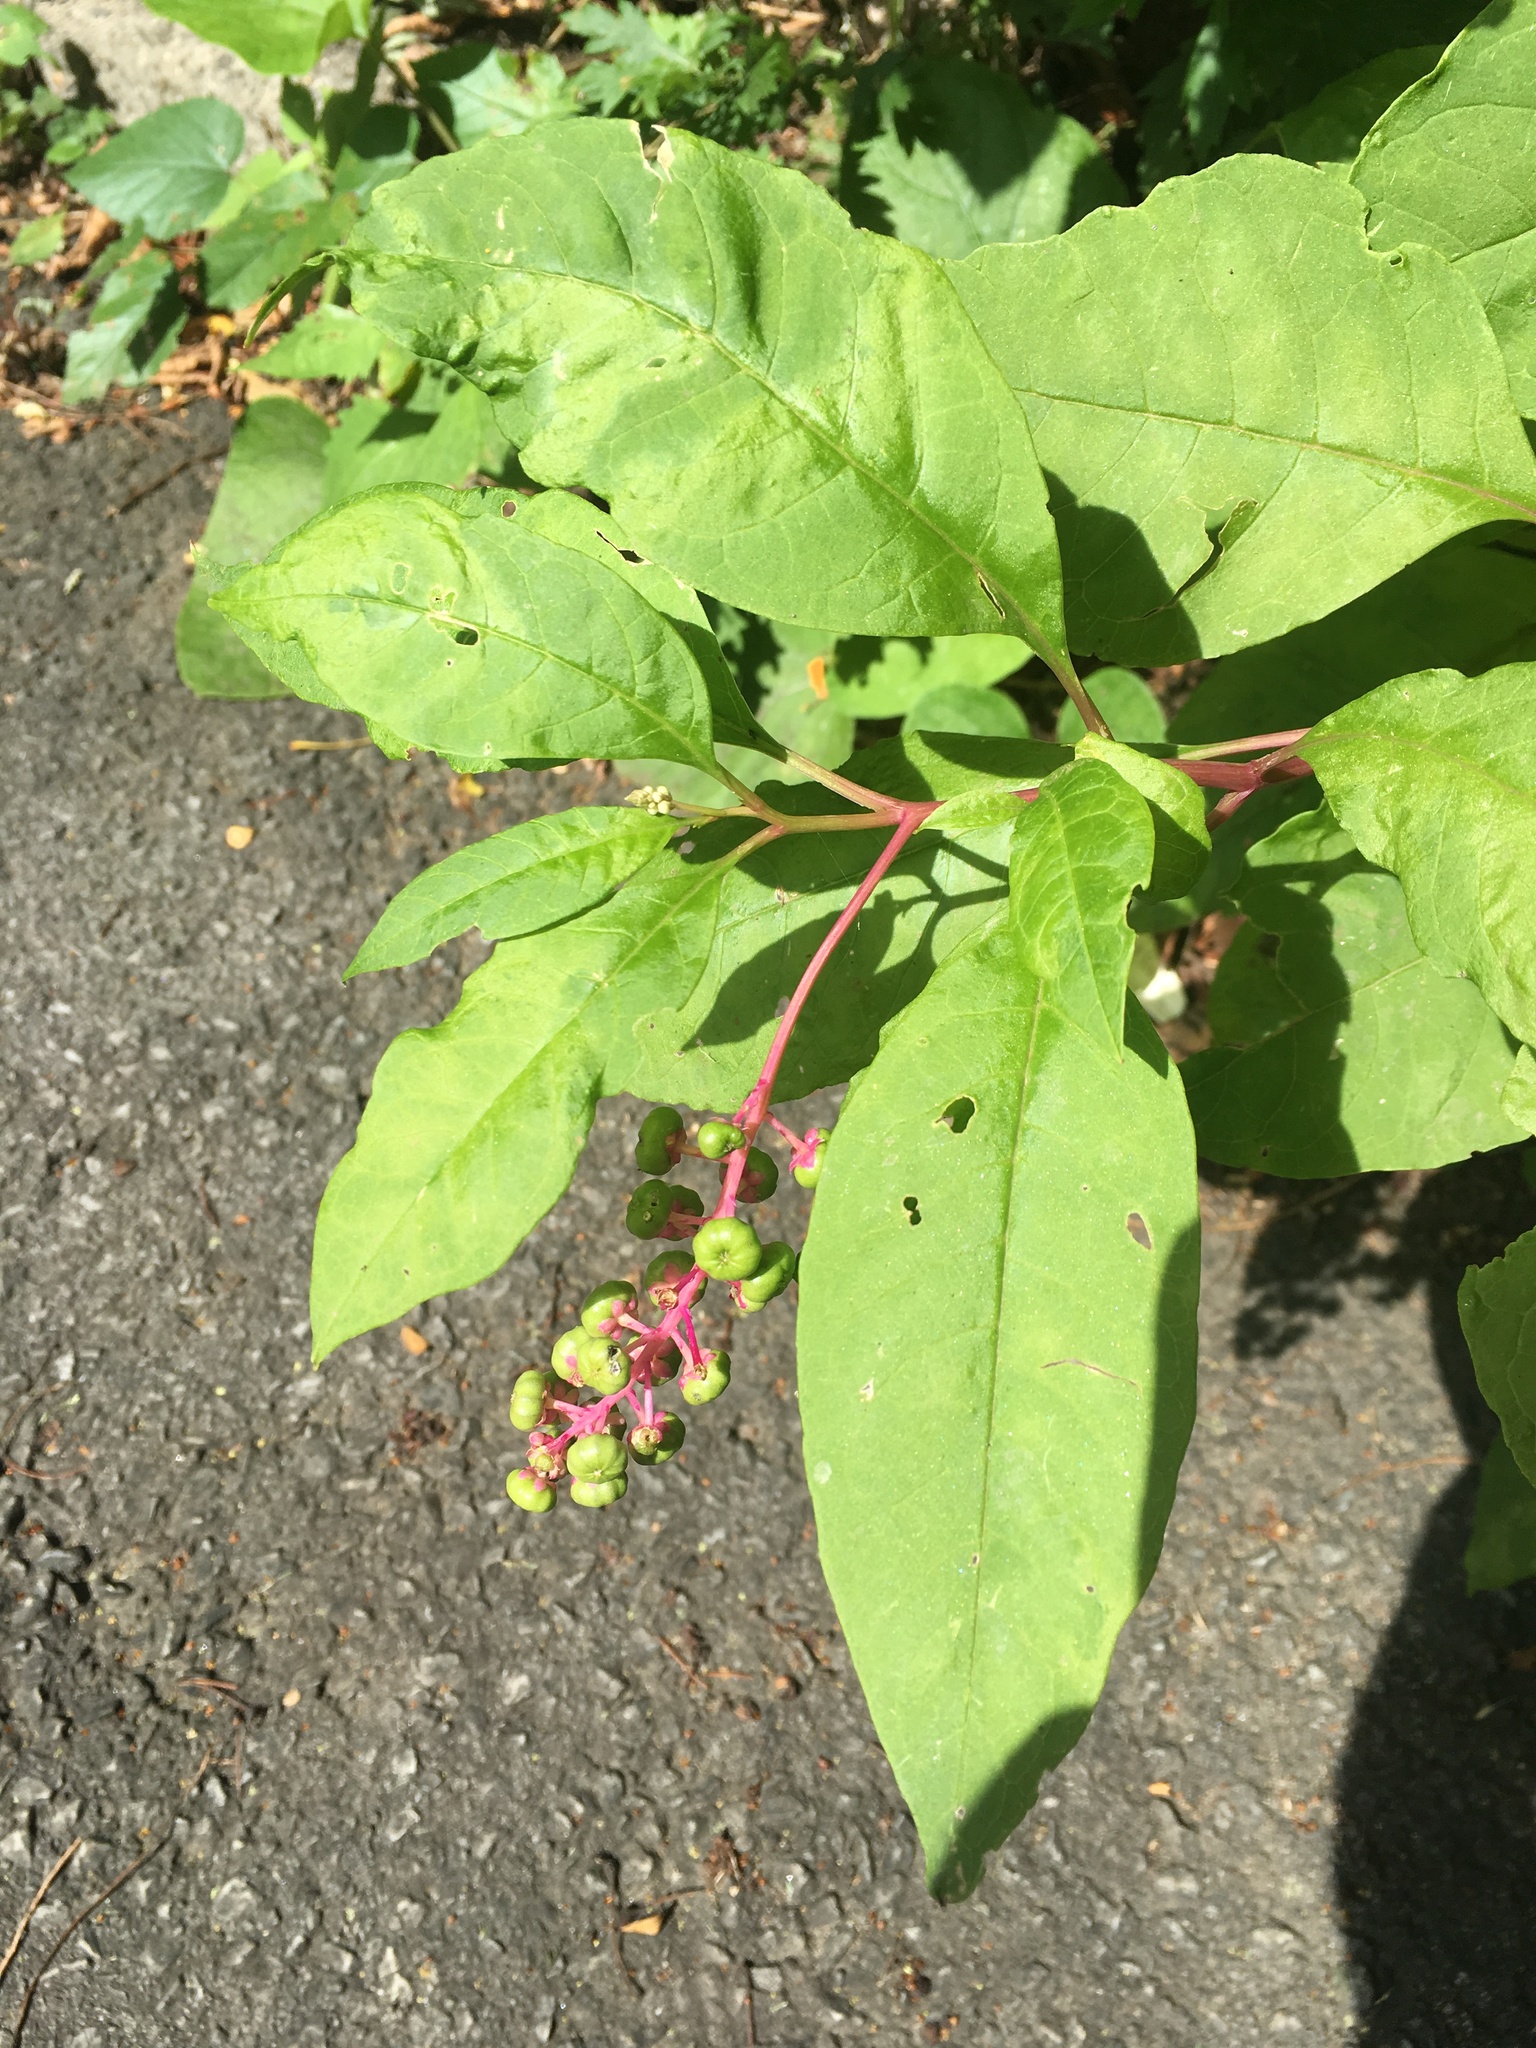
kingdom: Plantae
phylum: Tracheophyta
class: Magnoliopsida
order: Caryophyllales
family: Phytolaccaceae
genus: Phytolacca
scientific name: Phytolacca americana
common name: American pokeweed
